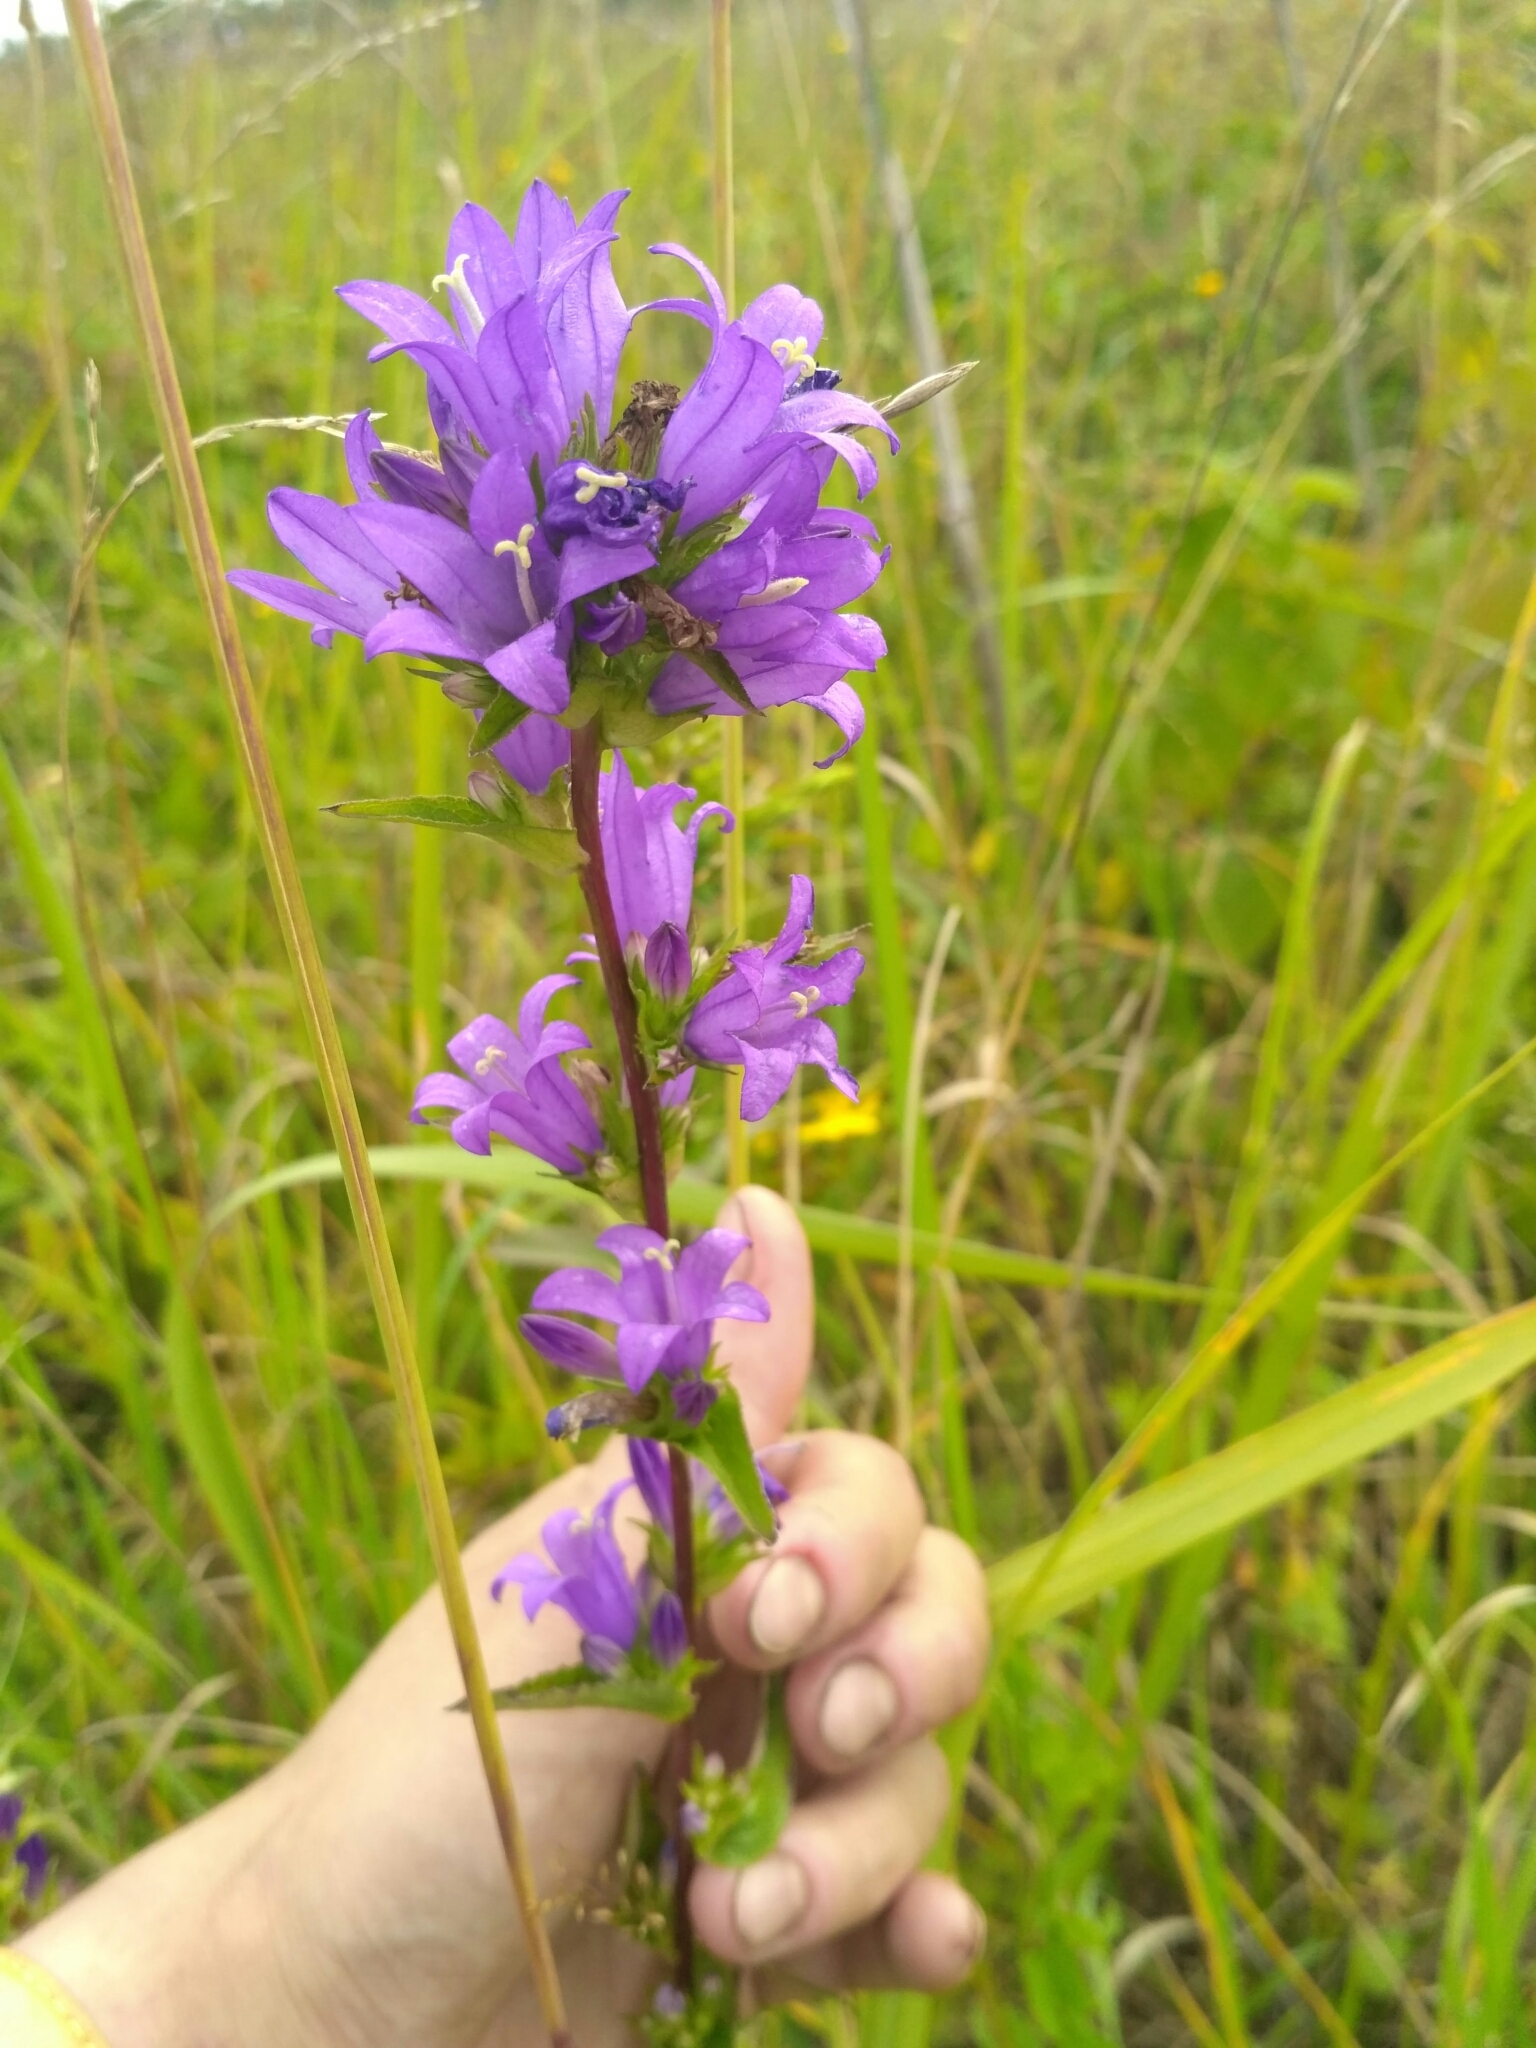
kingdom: Plantae
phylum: Tracheophyta
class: Magnoliopsida
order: Asterales
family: Campanulaceae
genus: Campanula
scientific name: Campanula glomerata
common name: Clustered bellflower
